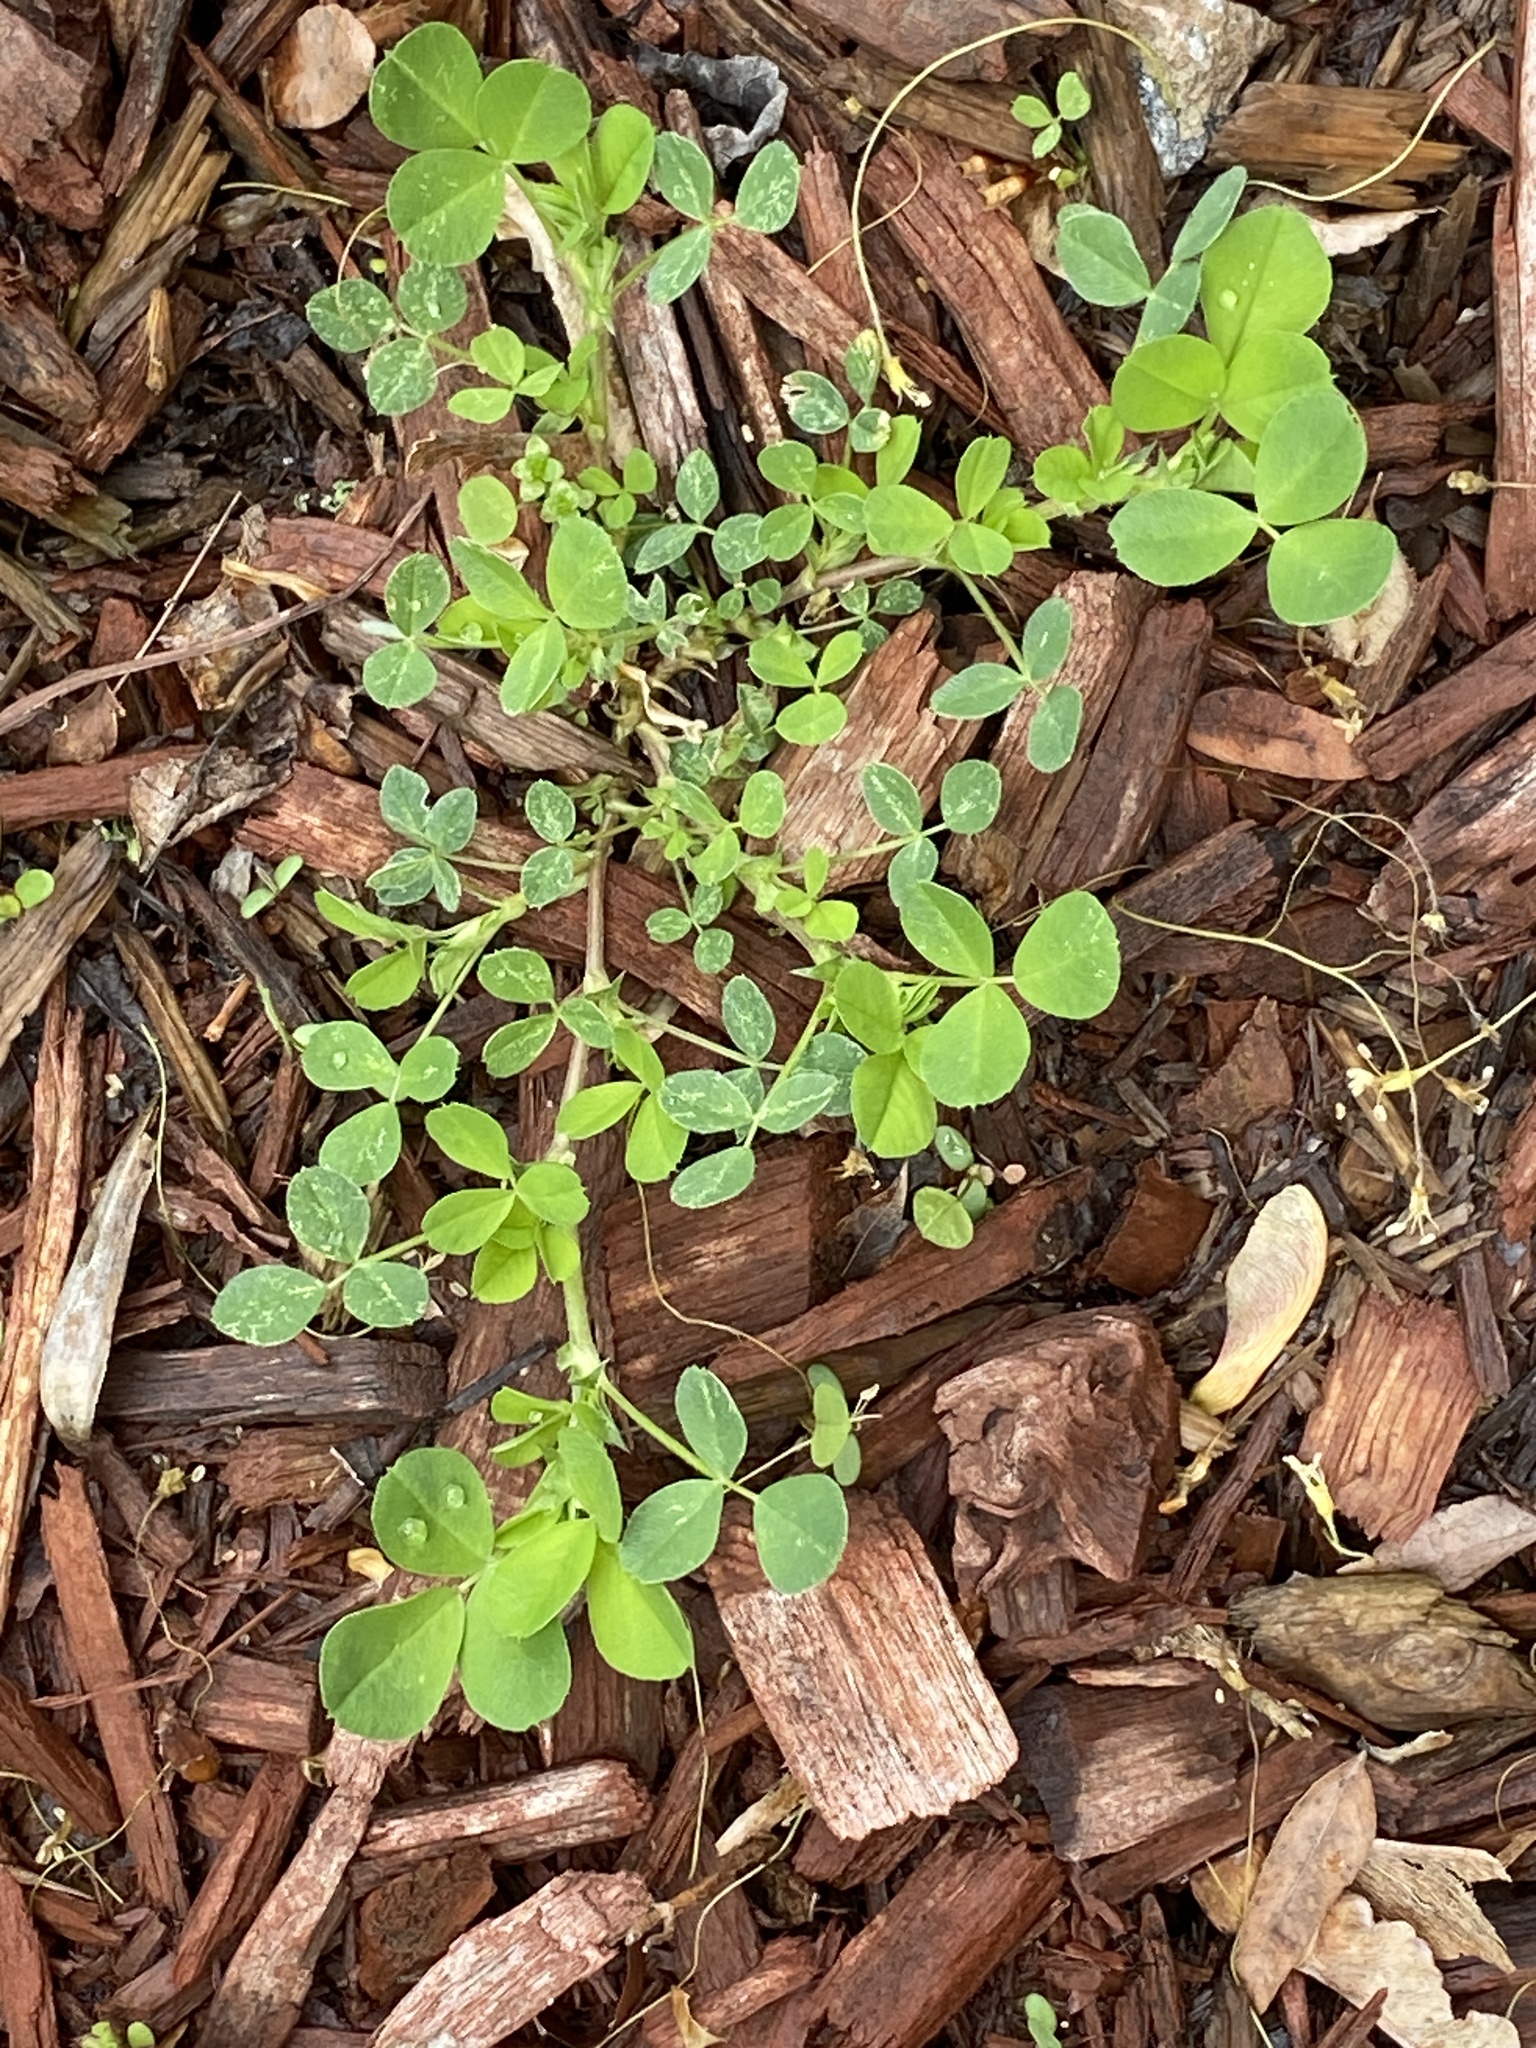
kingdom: Plantae
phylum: Tracheophyta
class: Magnoliopsida
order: Fabales
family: Fabaceae
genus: Medicago
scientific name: Medicago lupulina
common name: Black medick
